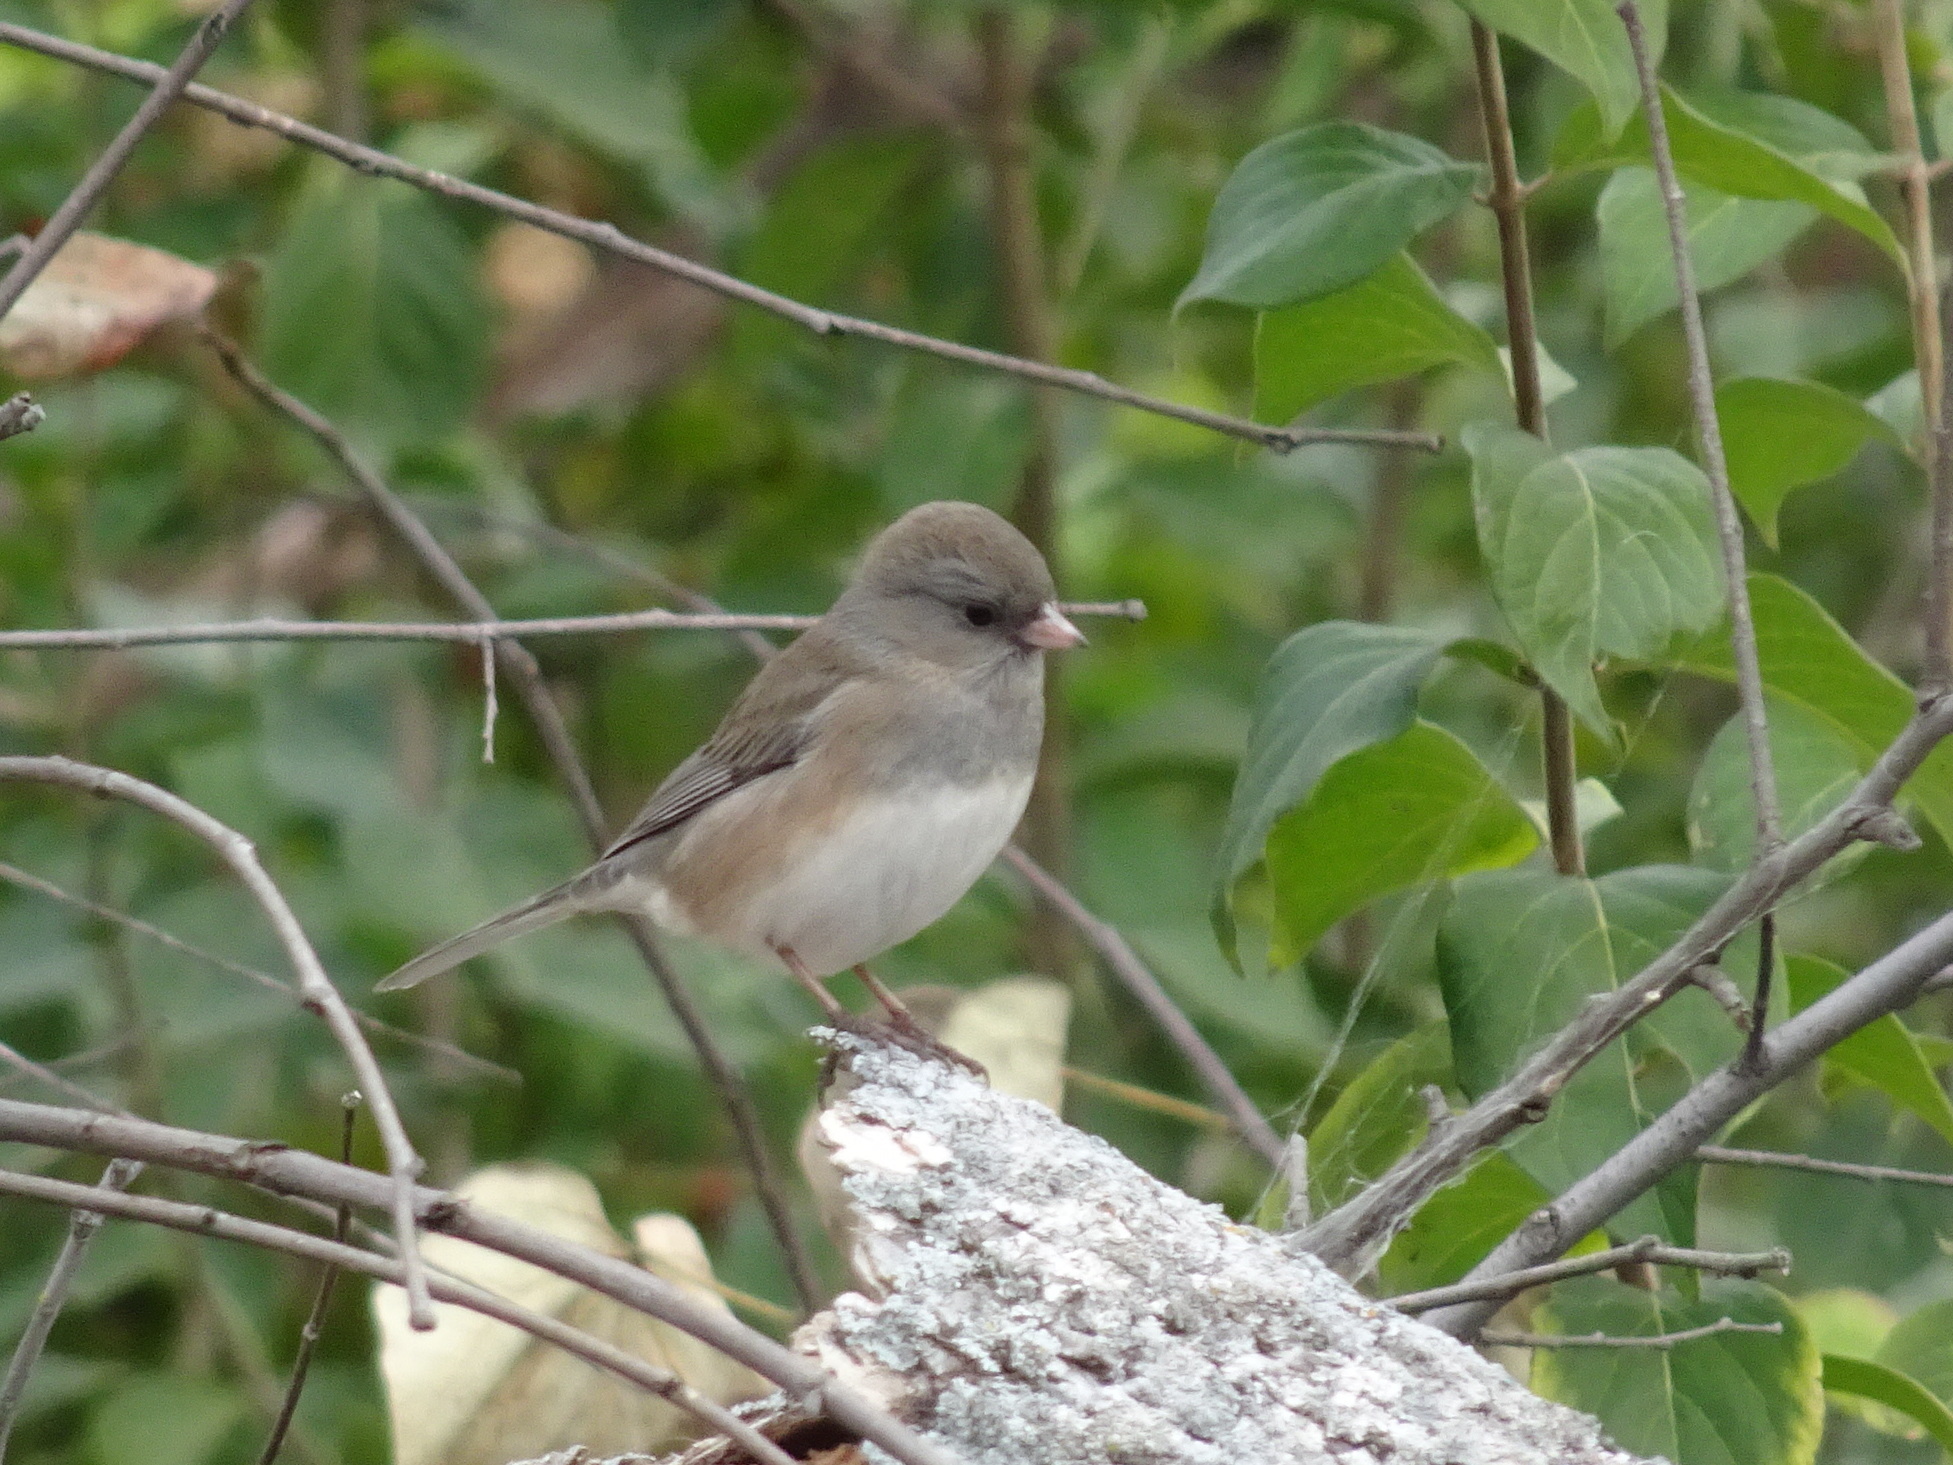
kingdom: Animalia
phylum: Chordata
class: Aves
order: Passeriformes
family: Passerellidae
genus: Junco
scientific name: Junco hyemalis
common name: Dark-eyed junco
